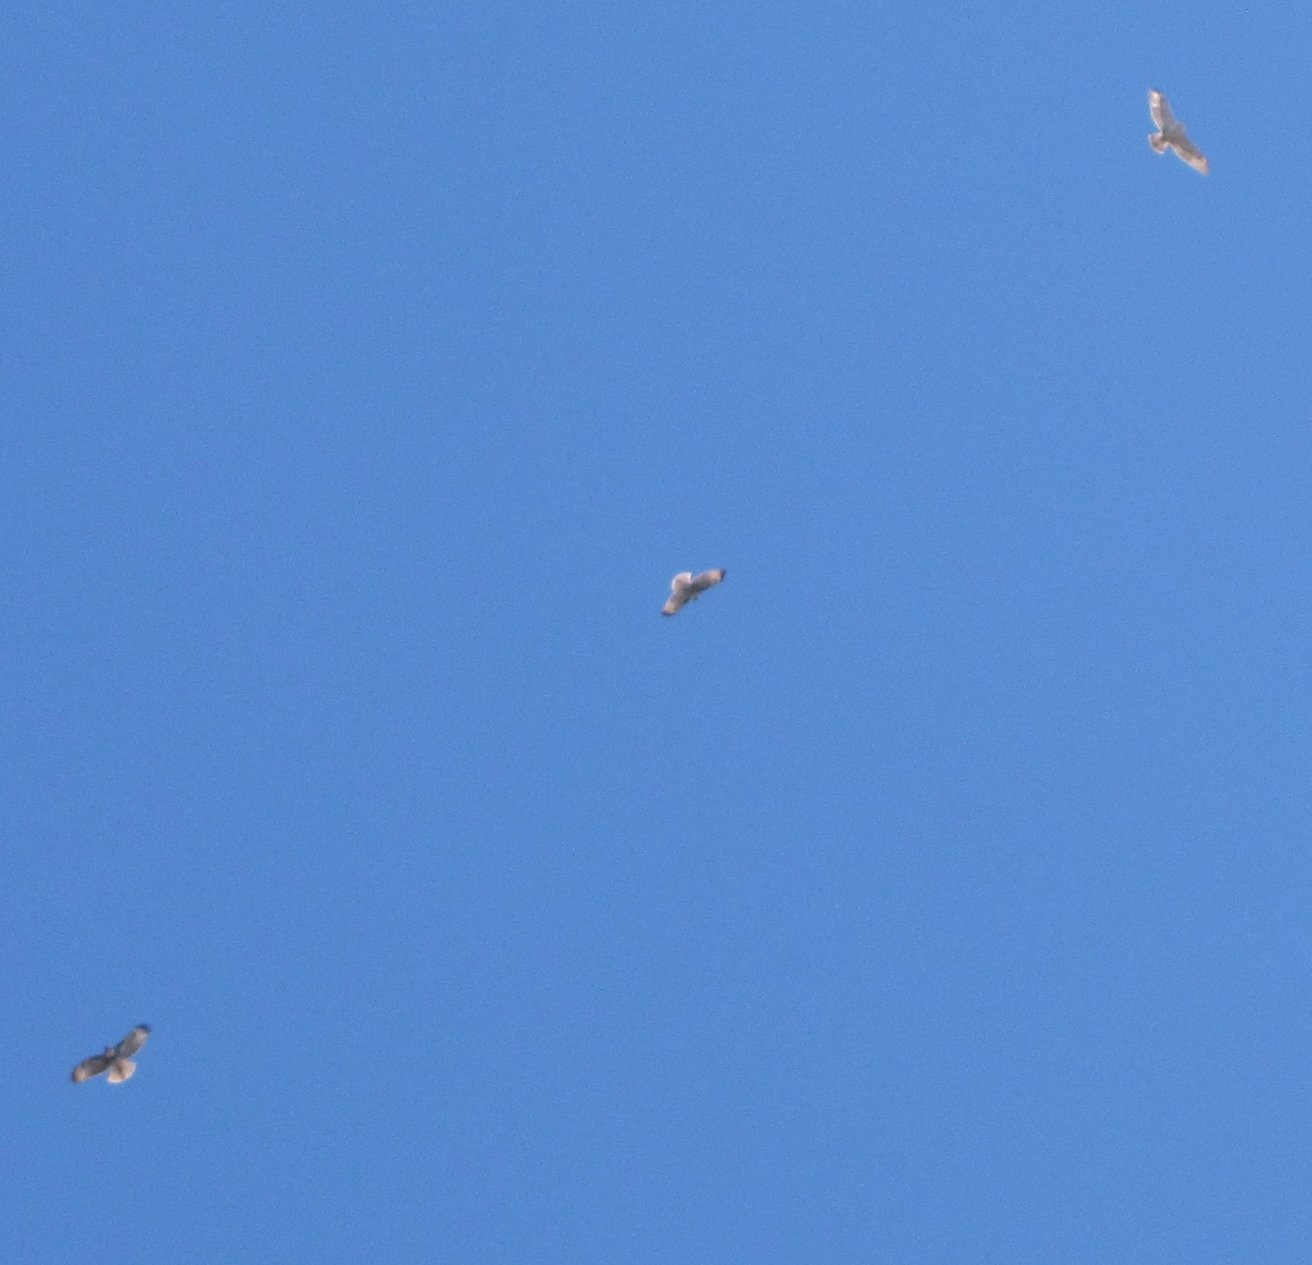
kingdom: Animalia
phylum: Chordata
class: Aves
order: Accipitriformes
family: Accipitridae
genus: Buteo
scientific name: Buteo regalis
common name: Ferruginous hawk
